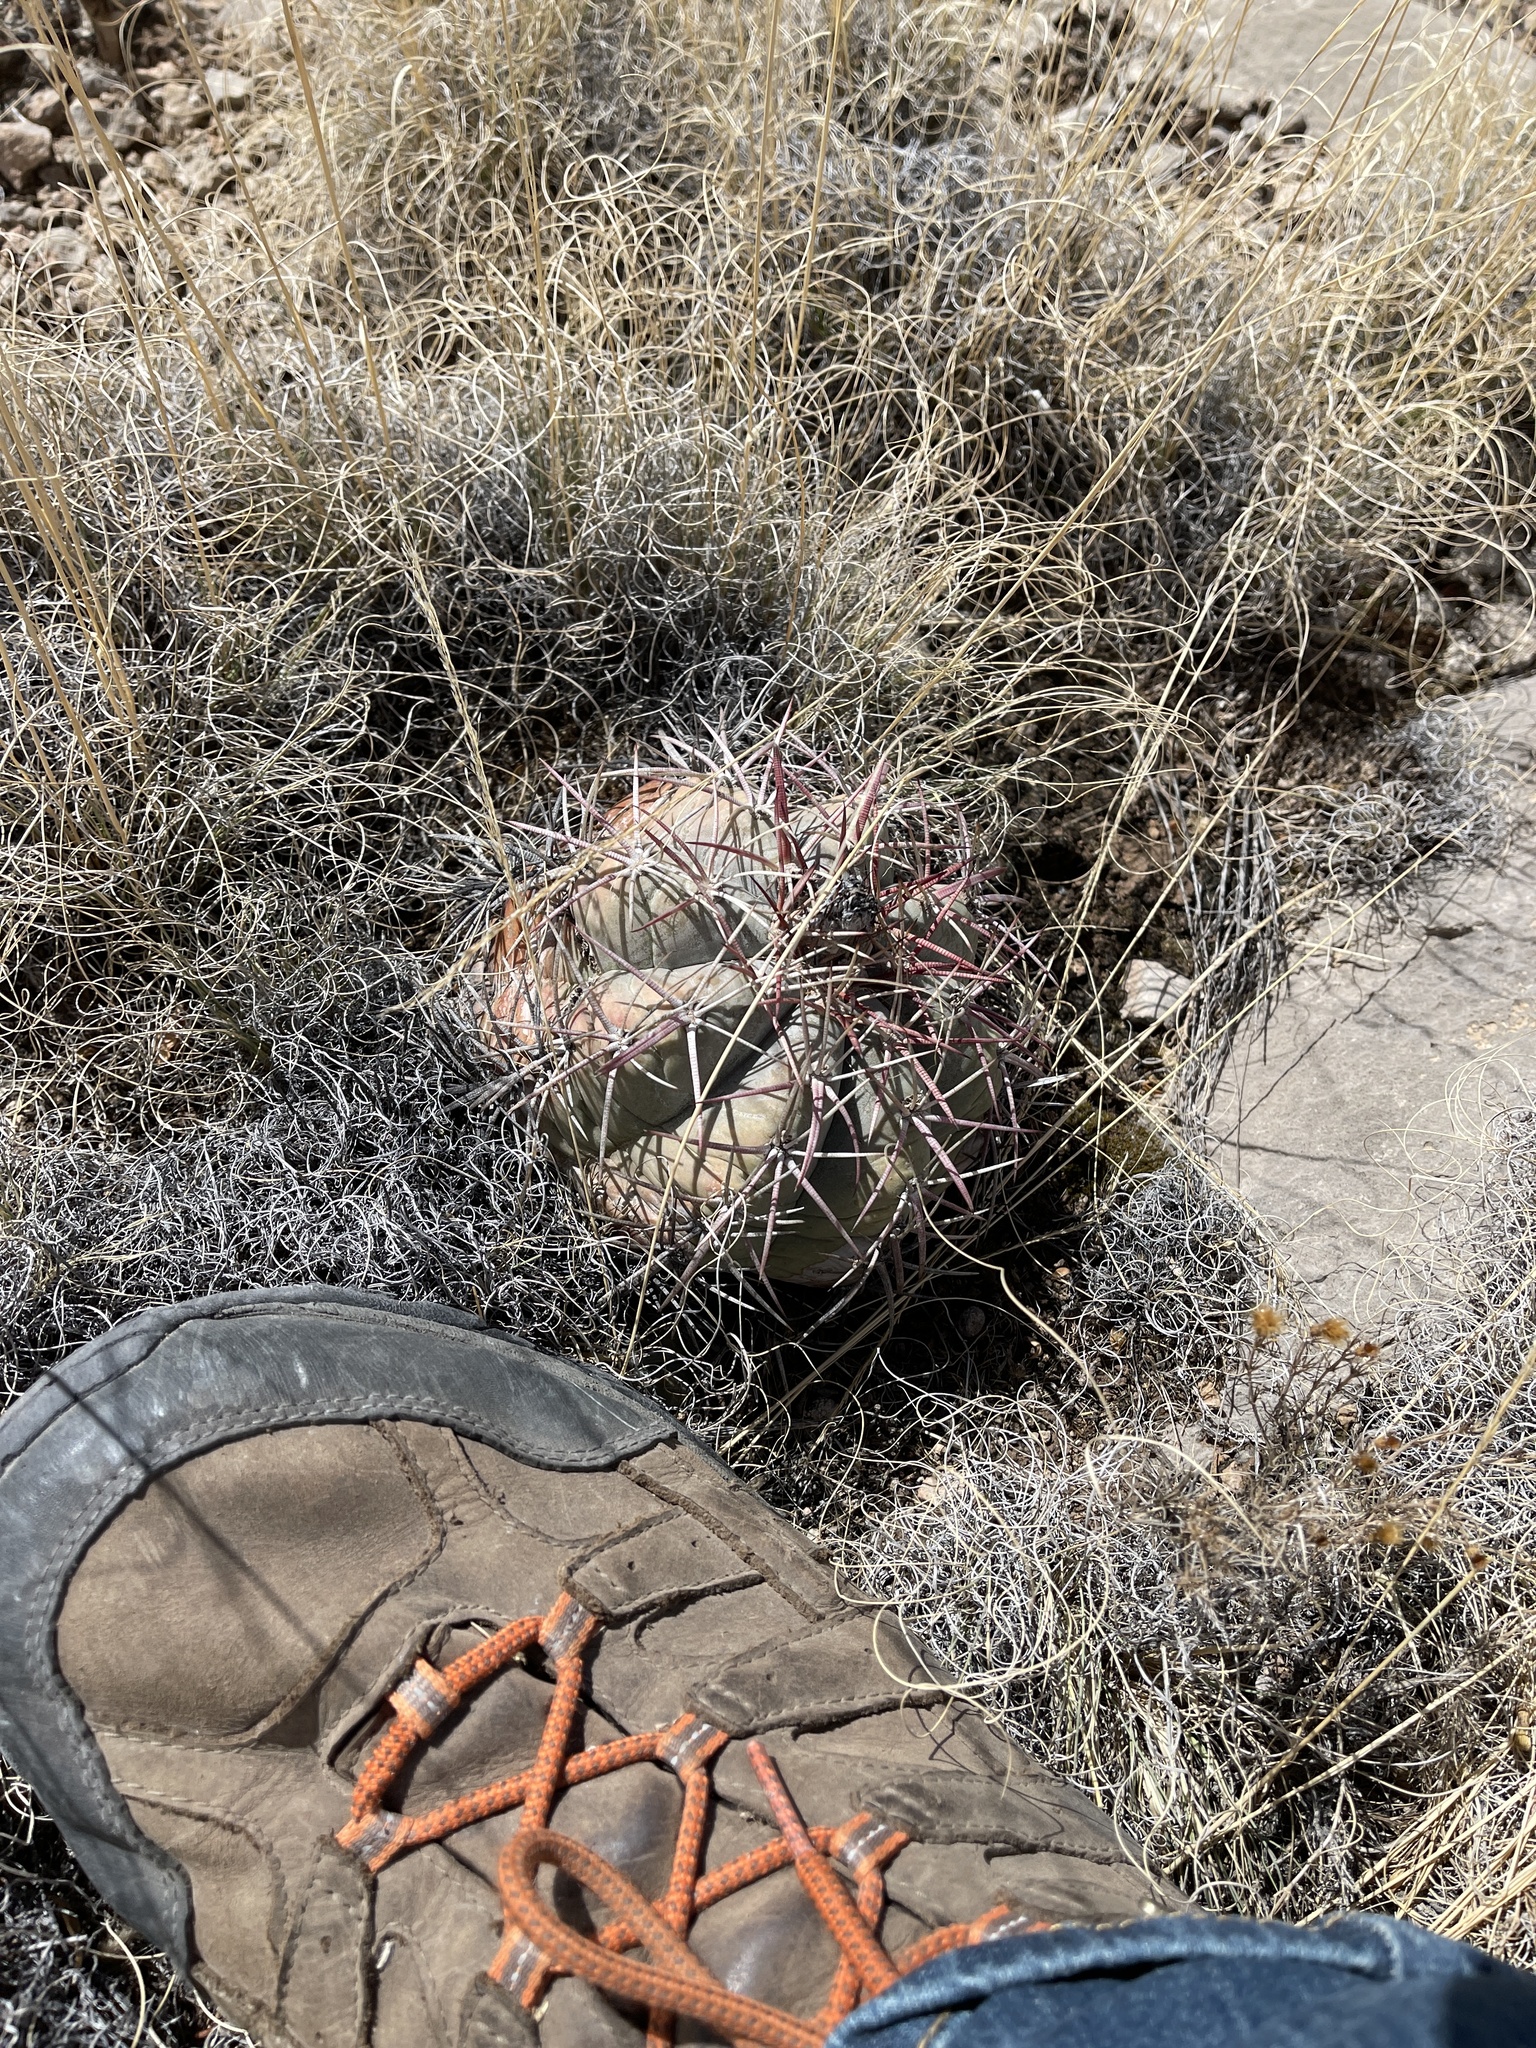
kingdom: Plantae
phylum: Tracheophyta
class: Magnoliopsida
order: Caryophyllales
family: Cactaceae
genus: Echinocactus
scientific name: Echinocactus horizonthalonius
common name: Devilshead
